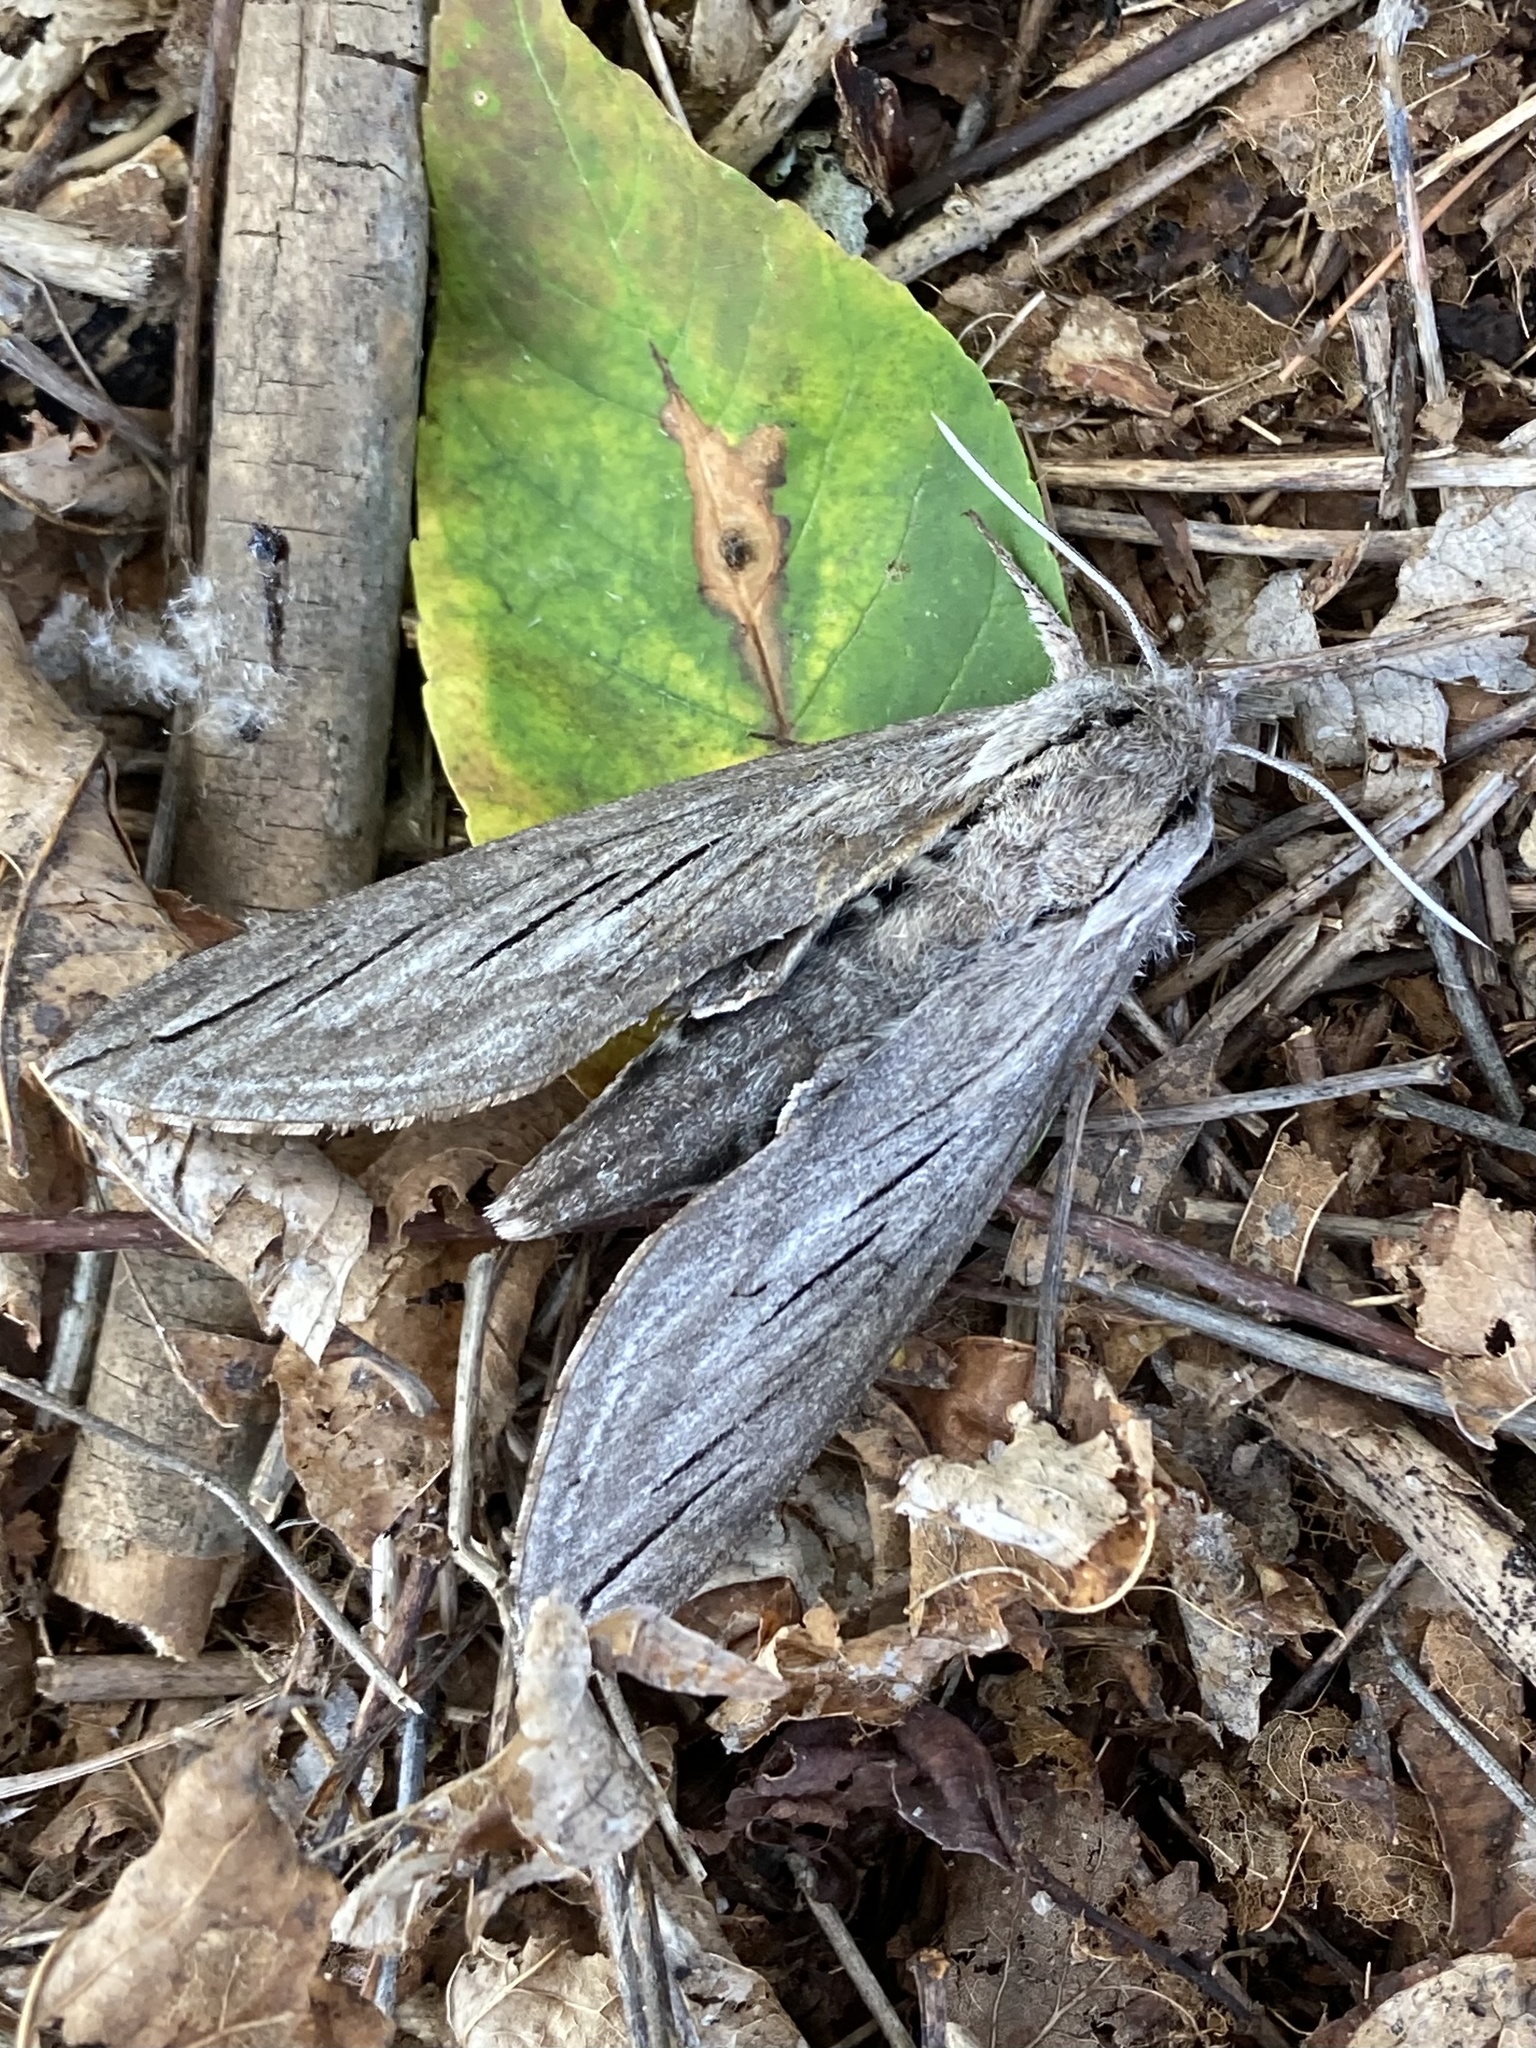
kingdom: Animalia
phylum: Arthropoda
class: Insecta
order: Lepidoptera
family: Sphingidae
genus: Sphinx
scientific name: Sphinx chersis
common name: Great ash sphinx
